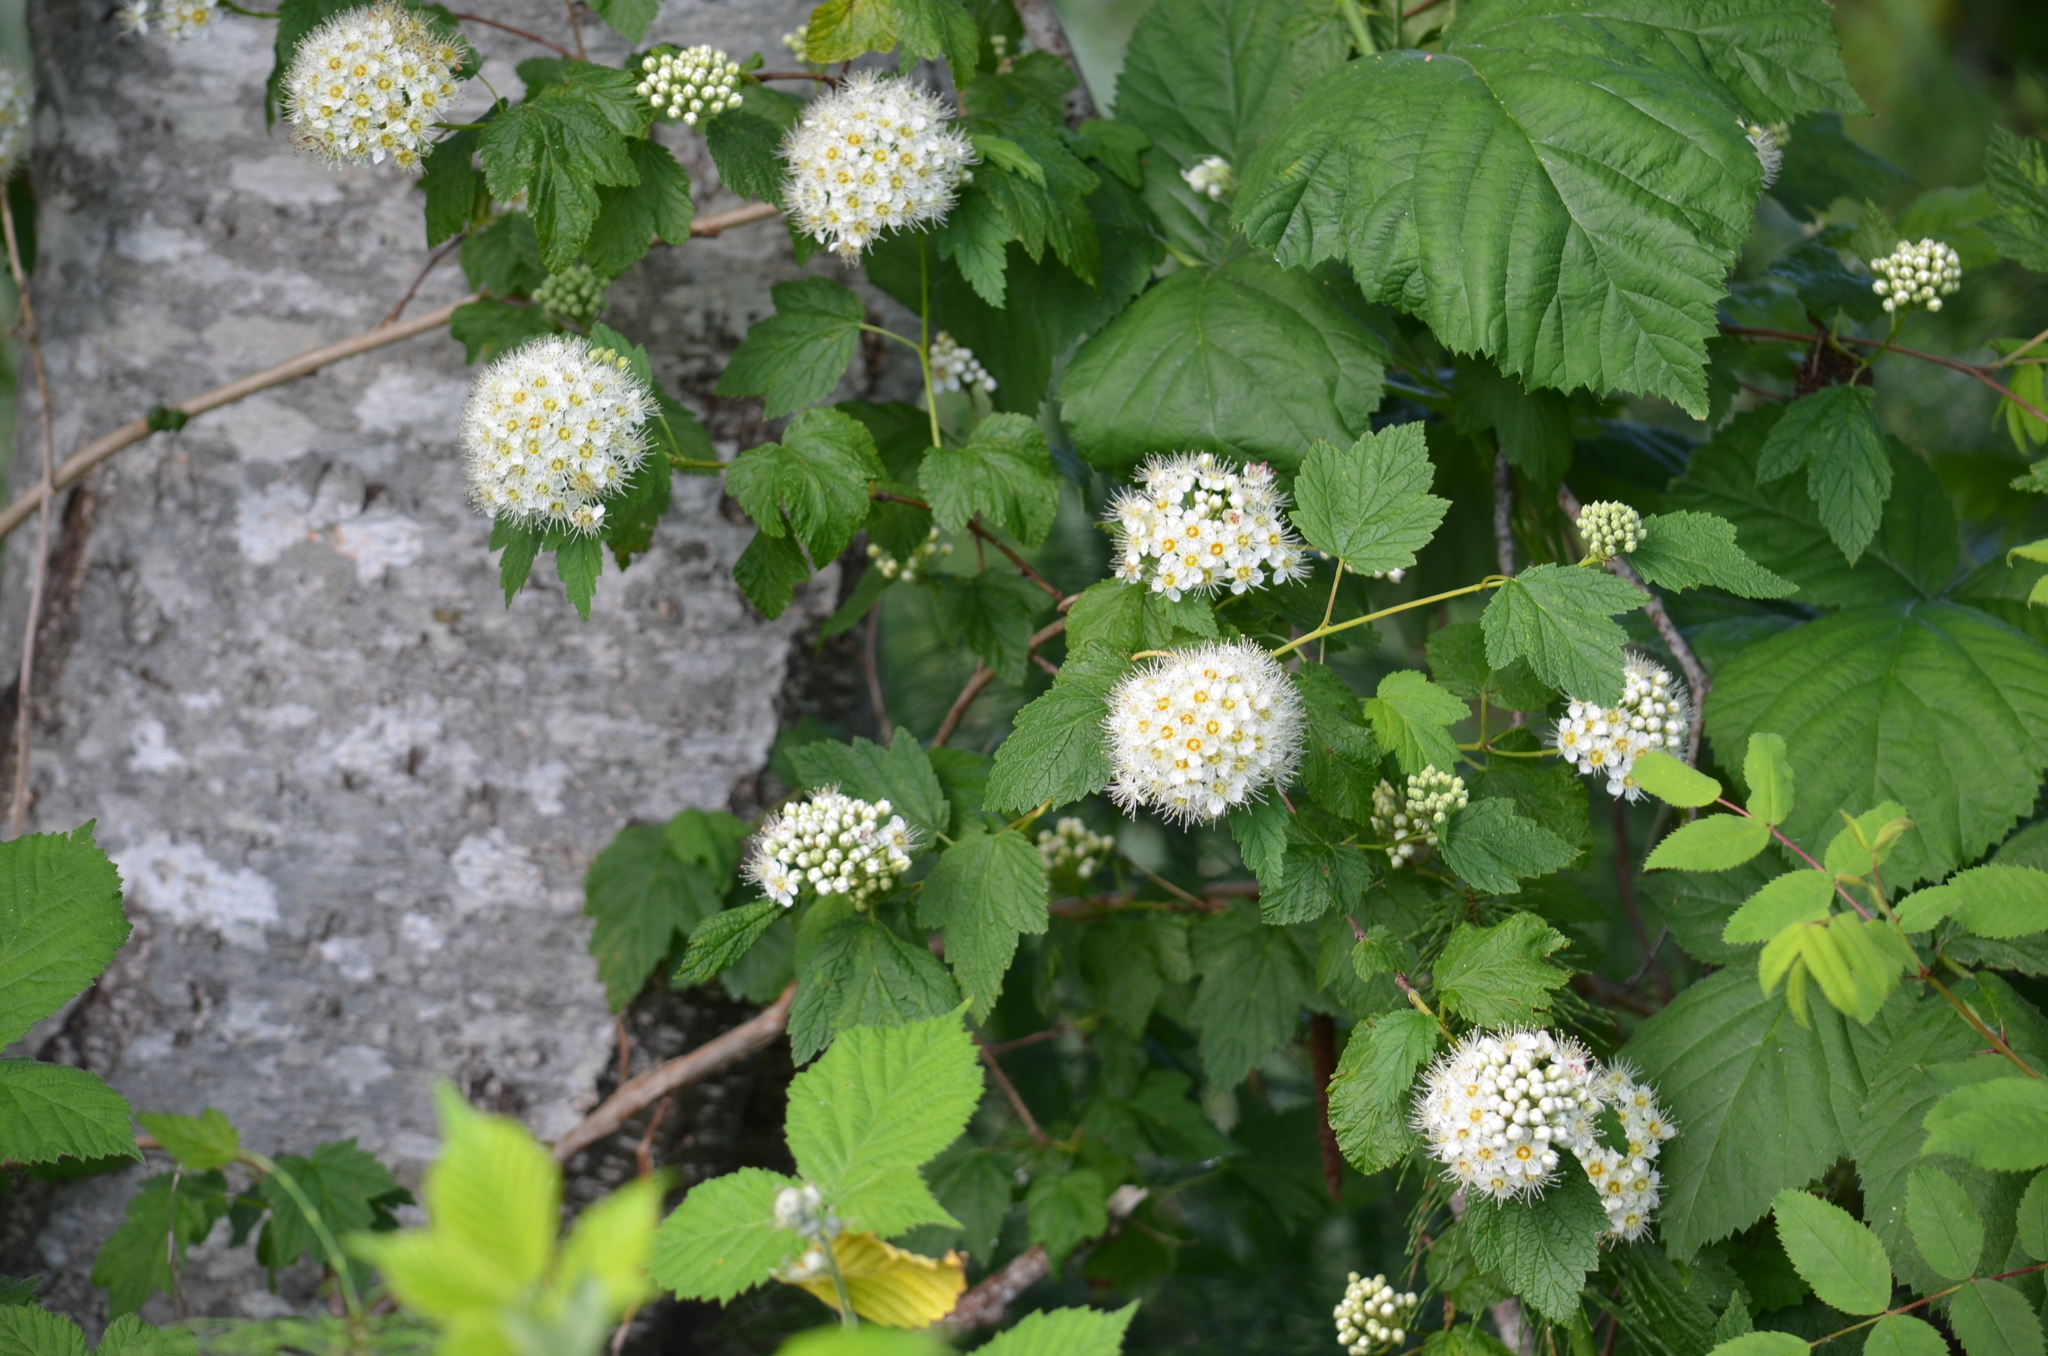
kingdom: Plantae
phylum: Tracheophyta
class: Magnoliopsida
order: Rosales
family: Rosaceae
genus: Physocarpus
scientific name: Physocarpus capitatus
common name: Pacific ninebark
